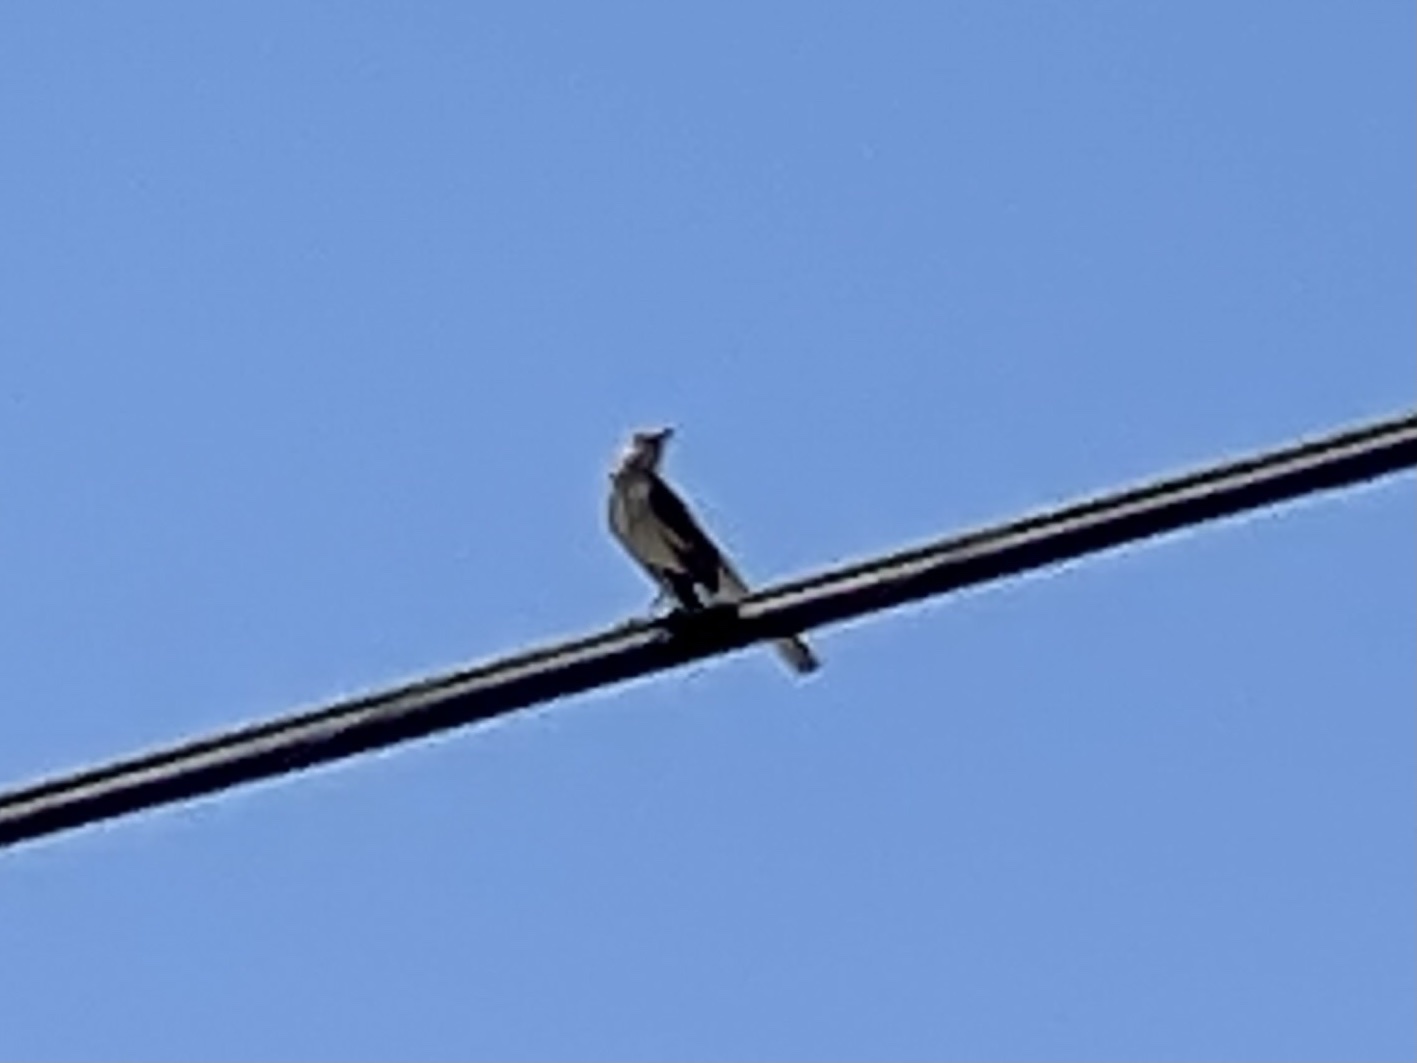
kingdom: Animalia
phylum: Chordata
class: Aves
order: Passeriformes
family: Mimidae
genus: Mimus
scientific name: Mimus polyglottos
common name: Northern mockingbird
